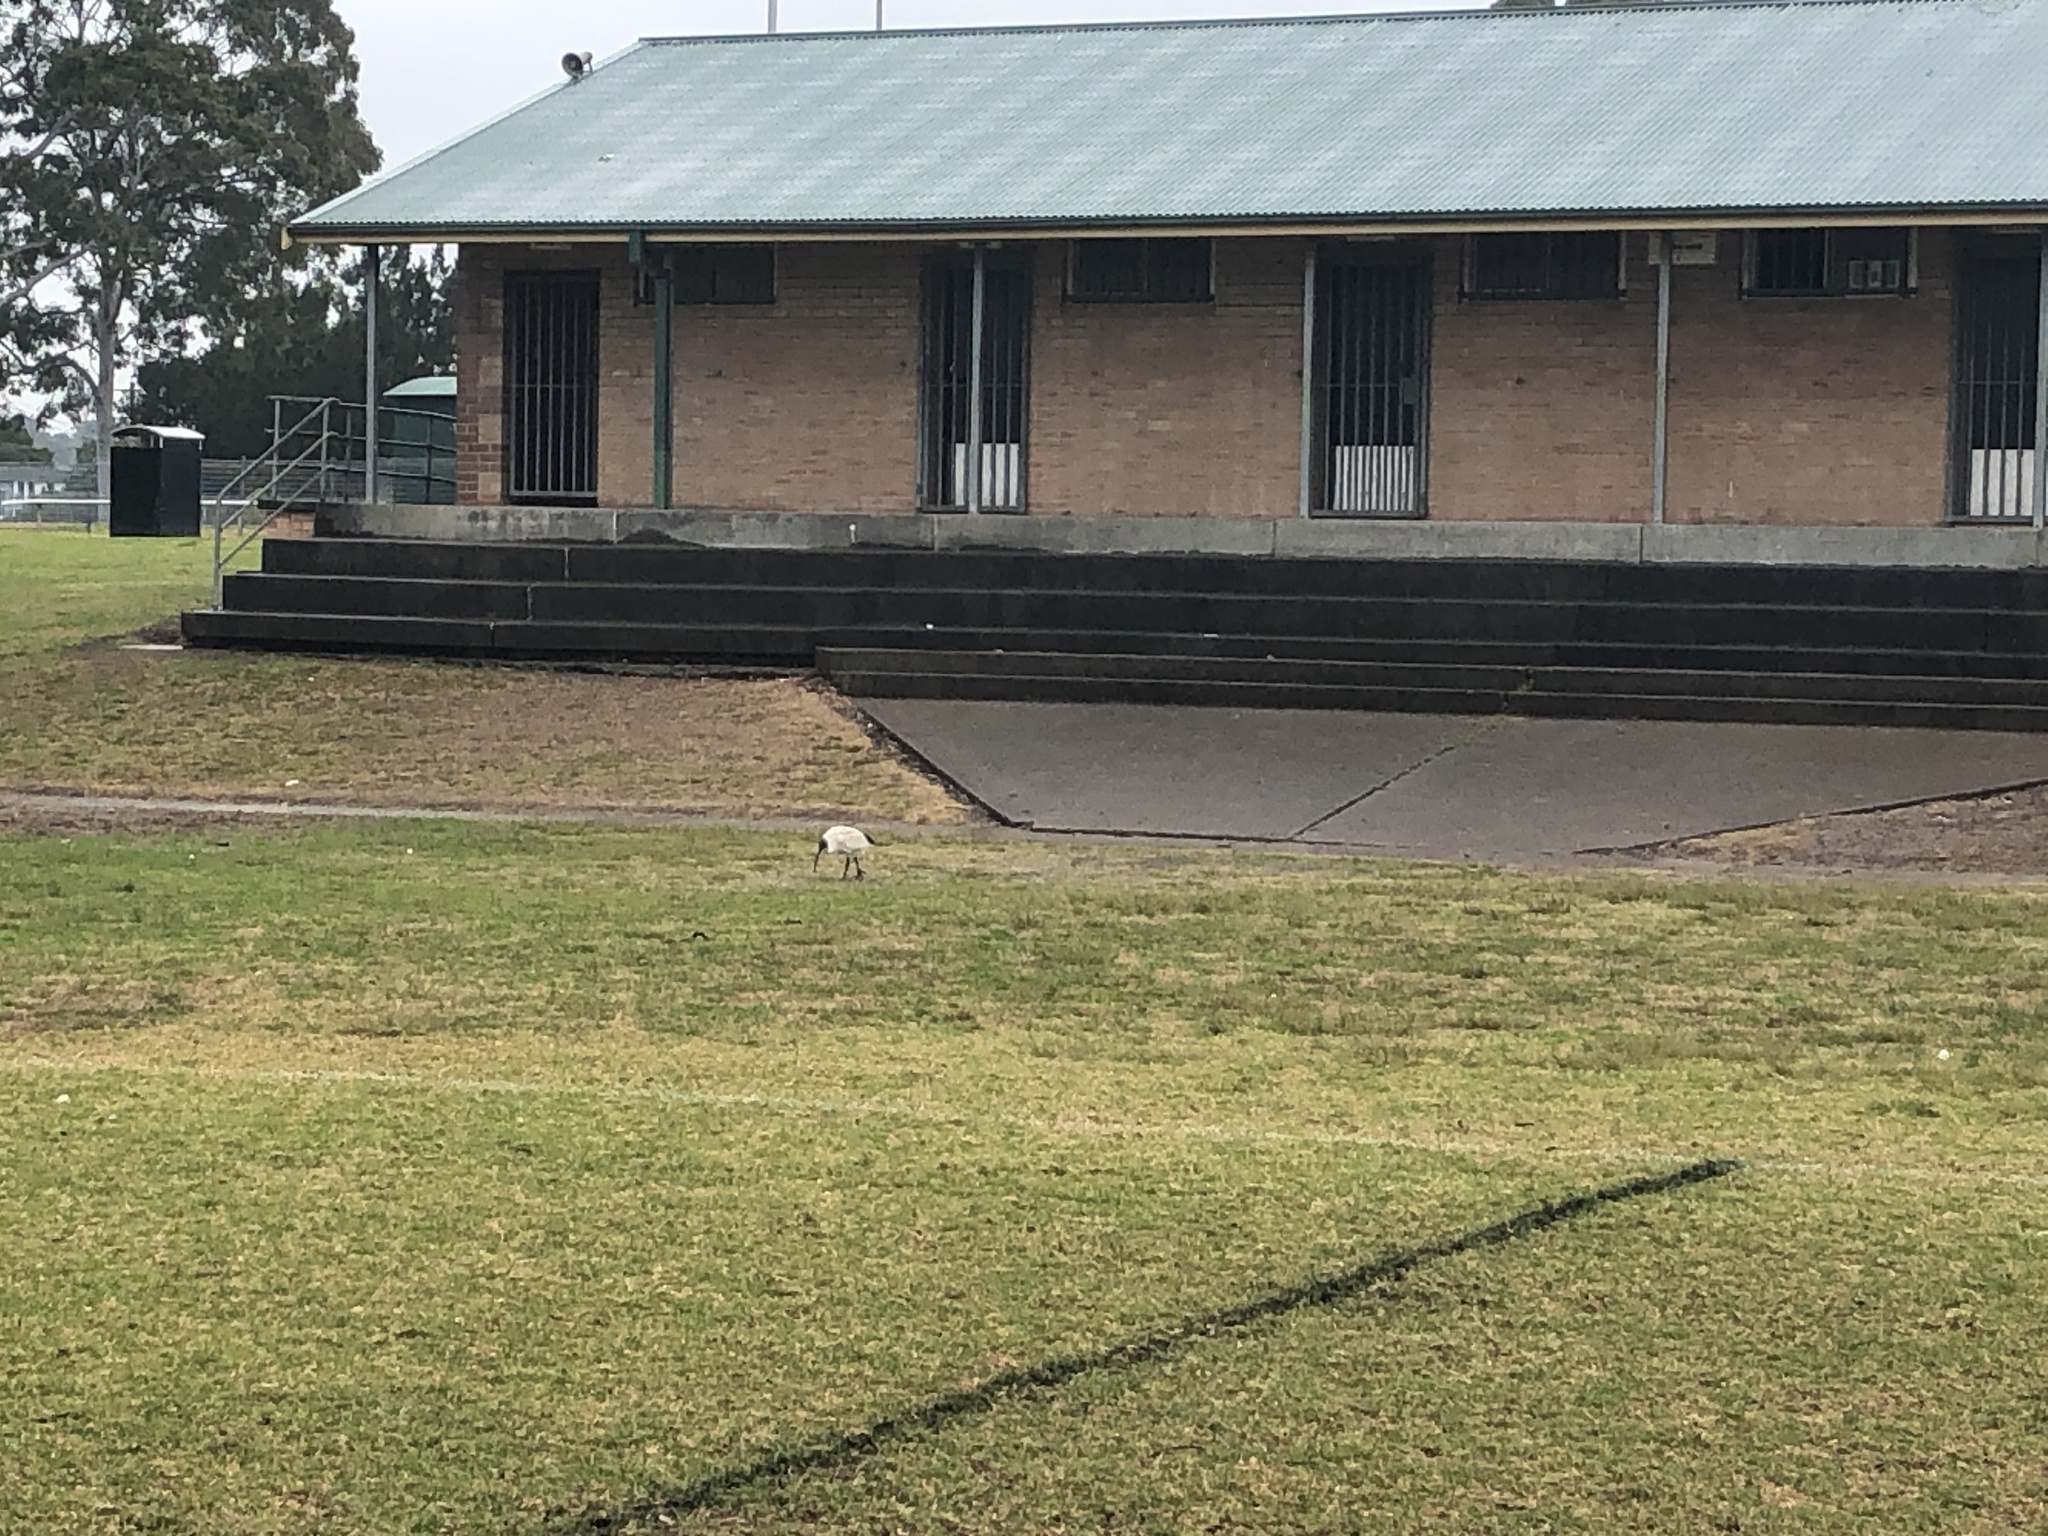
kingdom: Animalia
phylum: Chordata
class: Aves
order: Pelecaniformes
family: Threskiornithidae
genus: Threskiornis
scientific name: Threskiornis molucca
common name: Australian white ibis
